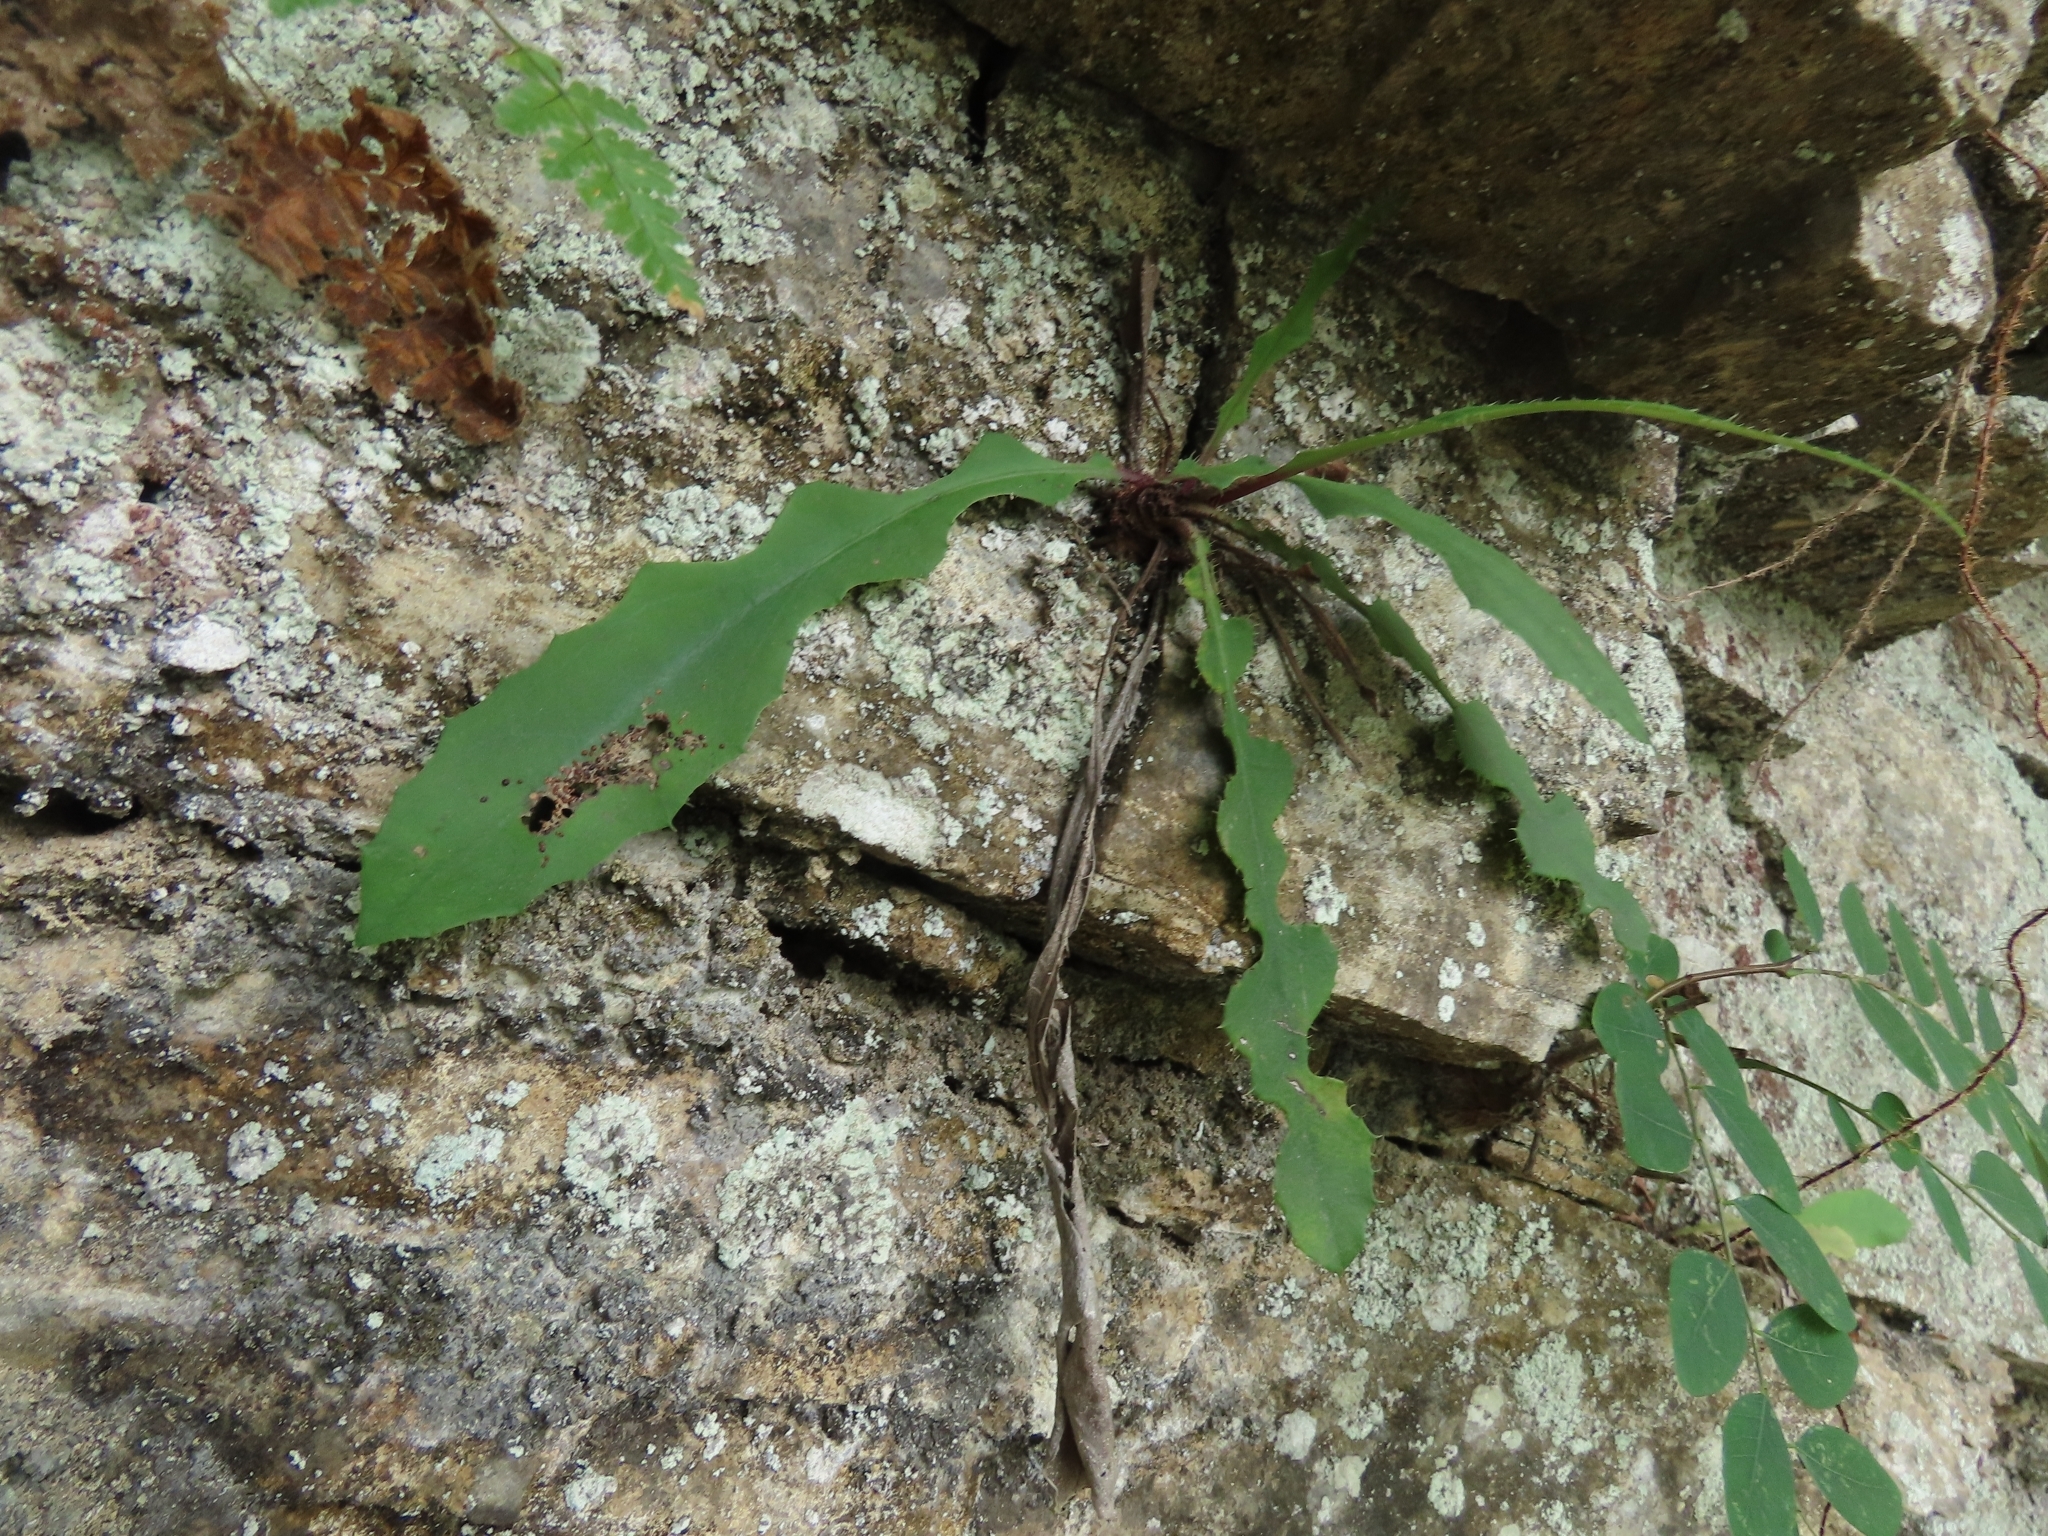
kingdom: Plantae
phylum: Tracheophyta
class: Magnoliopsida
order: Asterales
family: Asteraceae
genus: Ixeridium
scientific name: Ixeridium laevigatum
